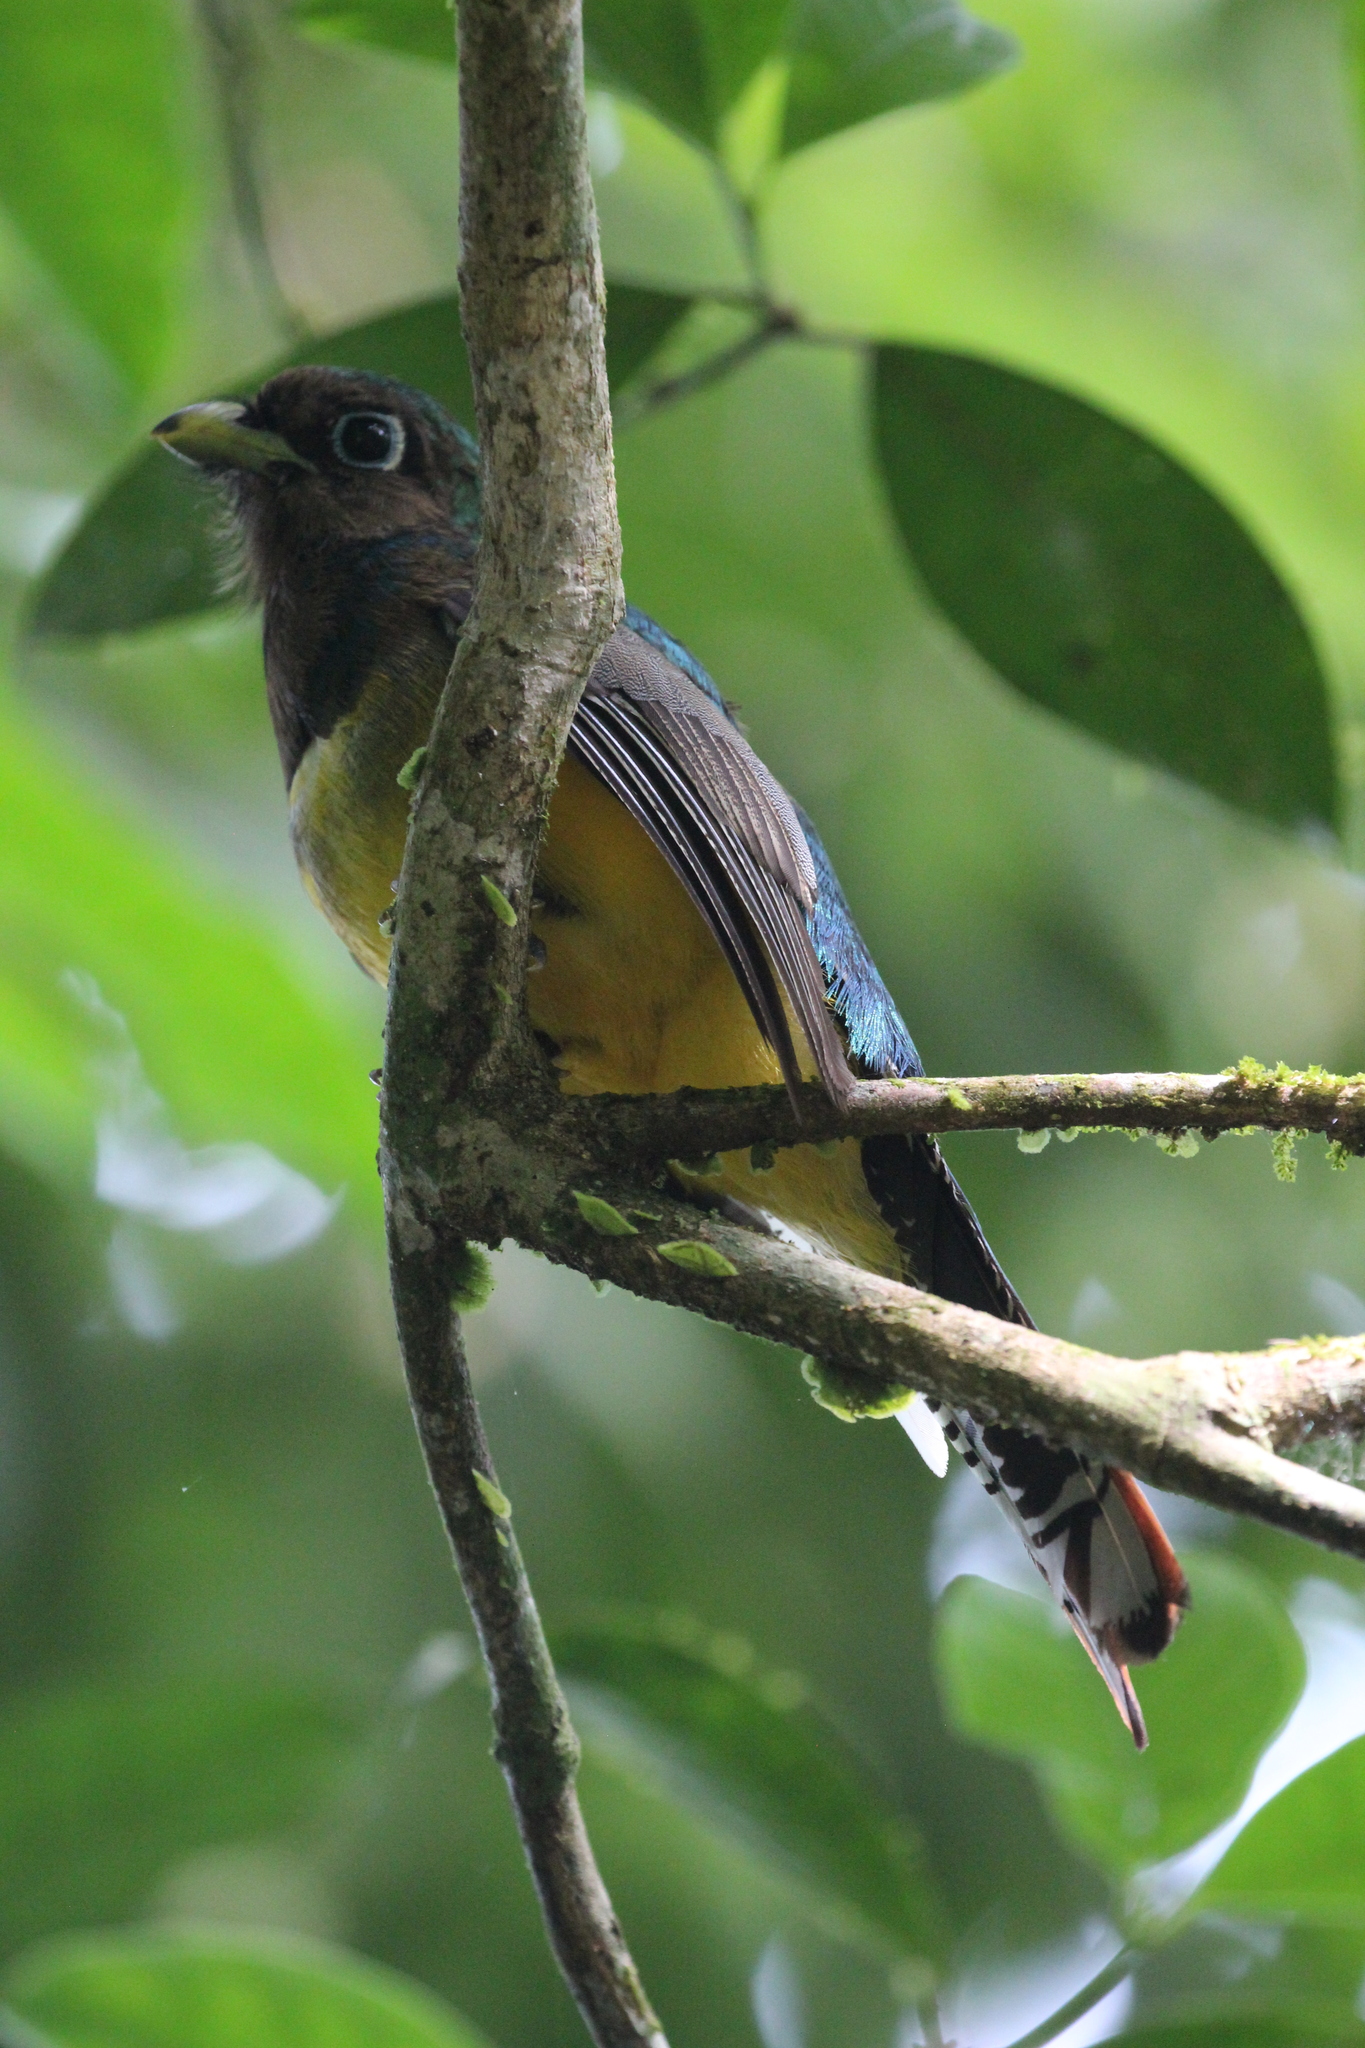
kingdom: Animalia
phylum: Chordata
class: Aves
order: Trogoniformes
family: Trogonidae
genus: Trogon
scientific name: Trogon rufus
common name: Black-throated trogon
